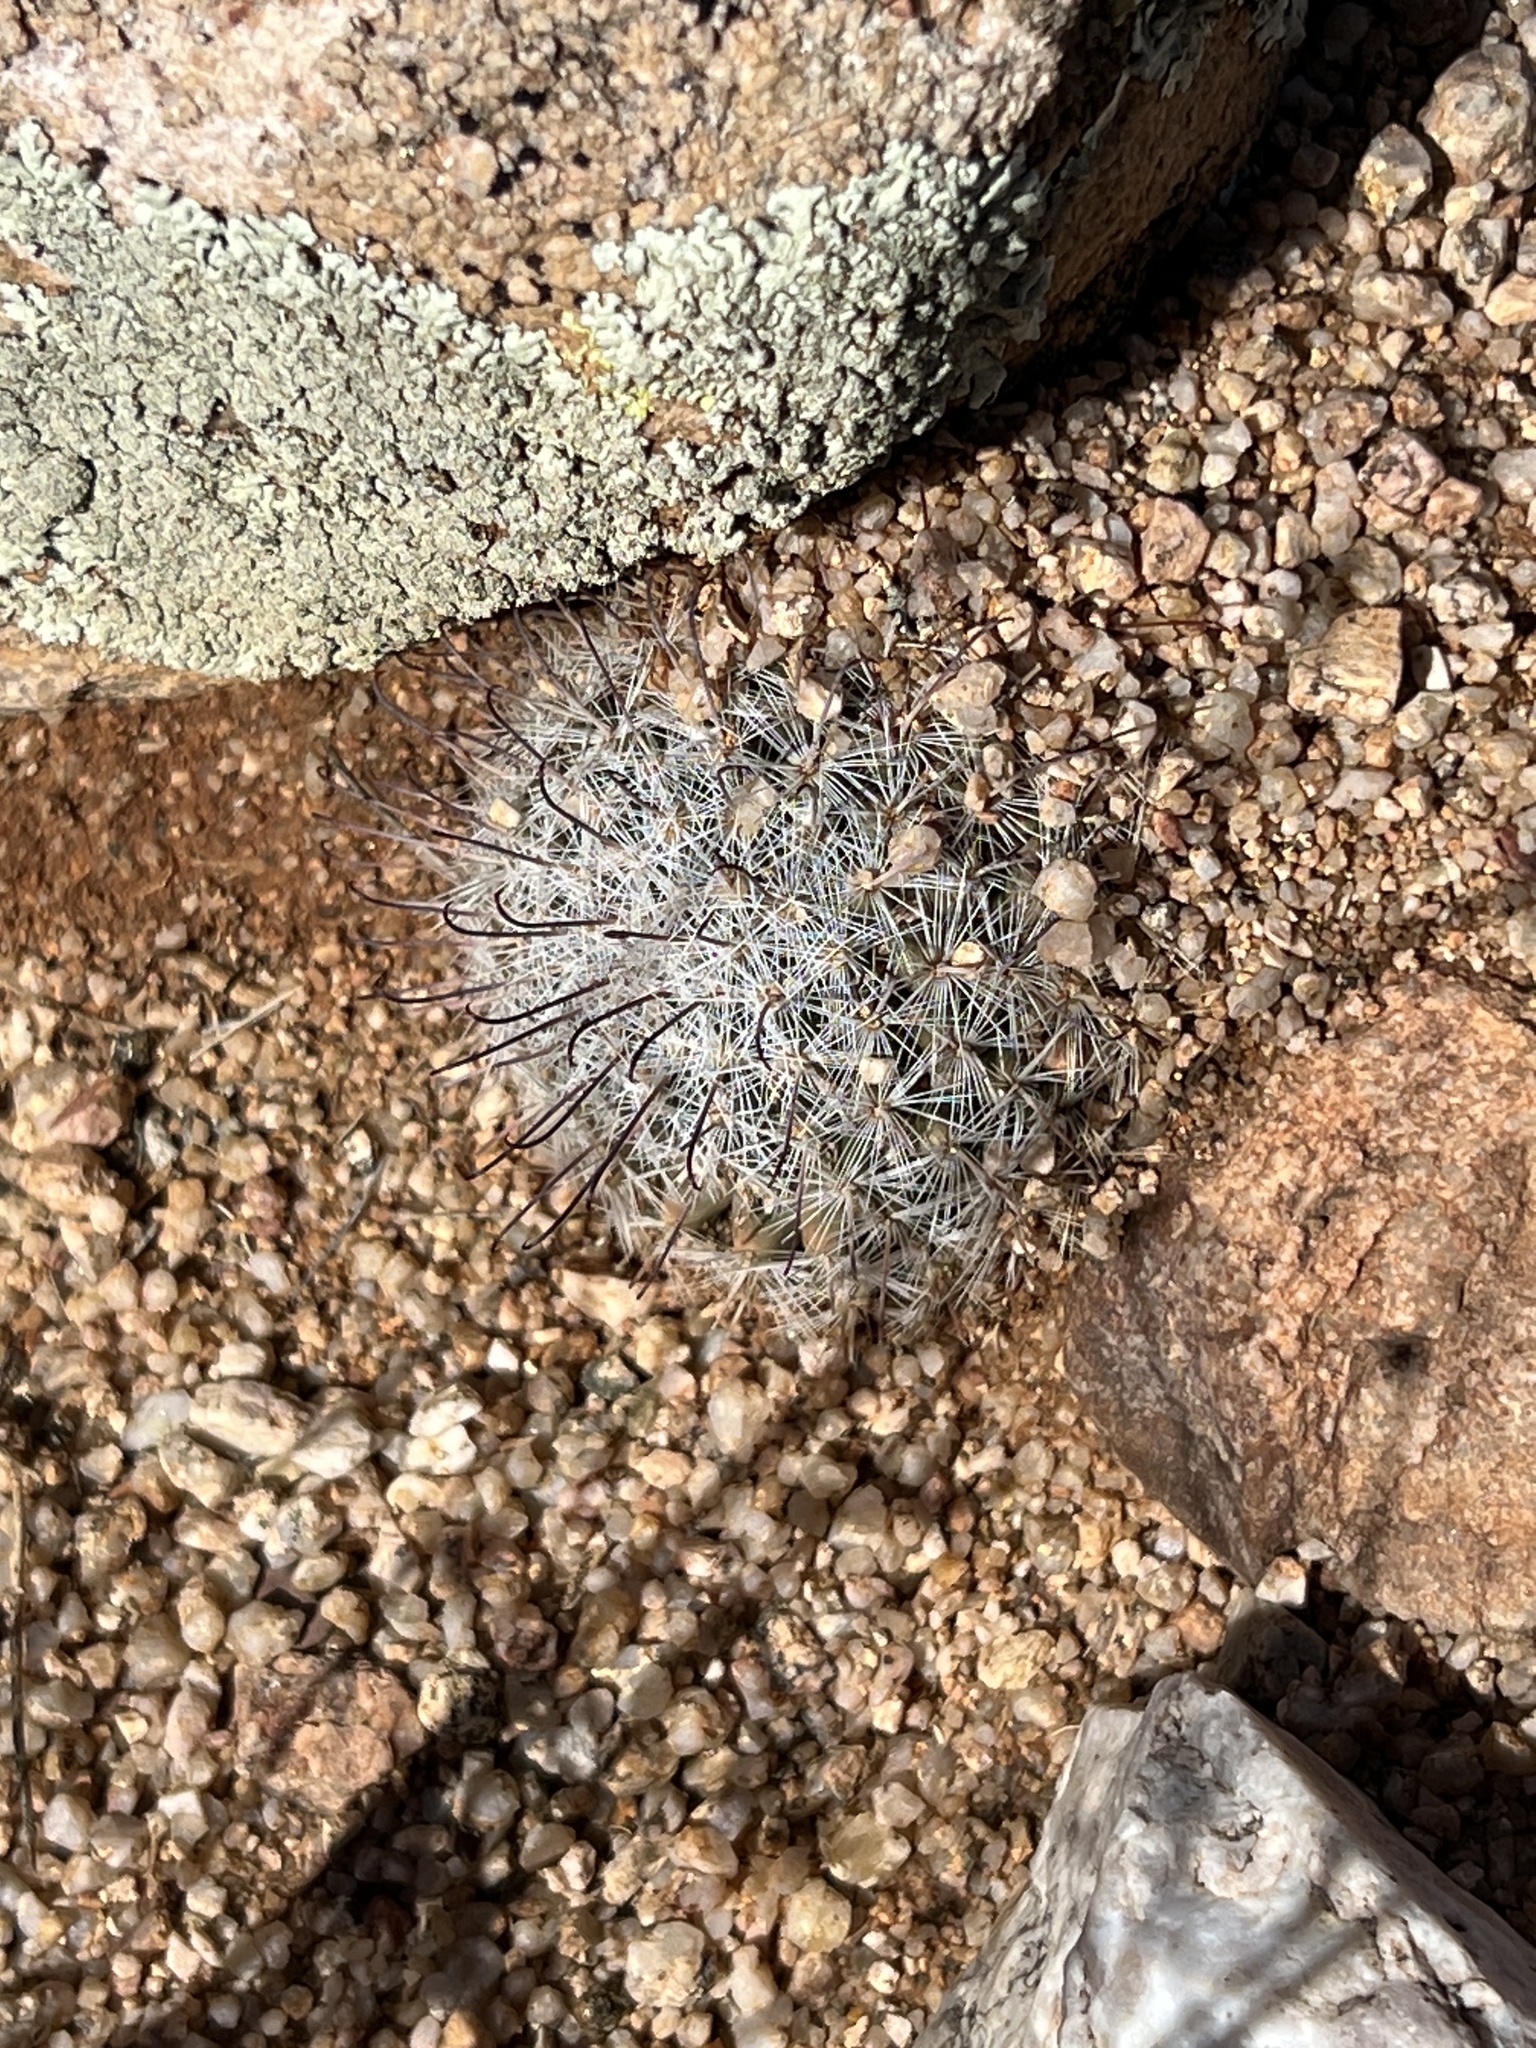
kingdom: Plantae
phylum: Tracheophyta
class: Magnoliopsida
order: Caryophyllales
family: Cactaceae
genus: Cochemiea
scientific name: Cochemiea grahamii
